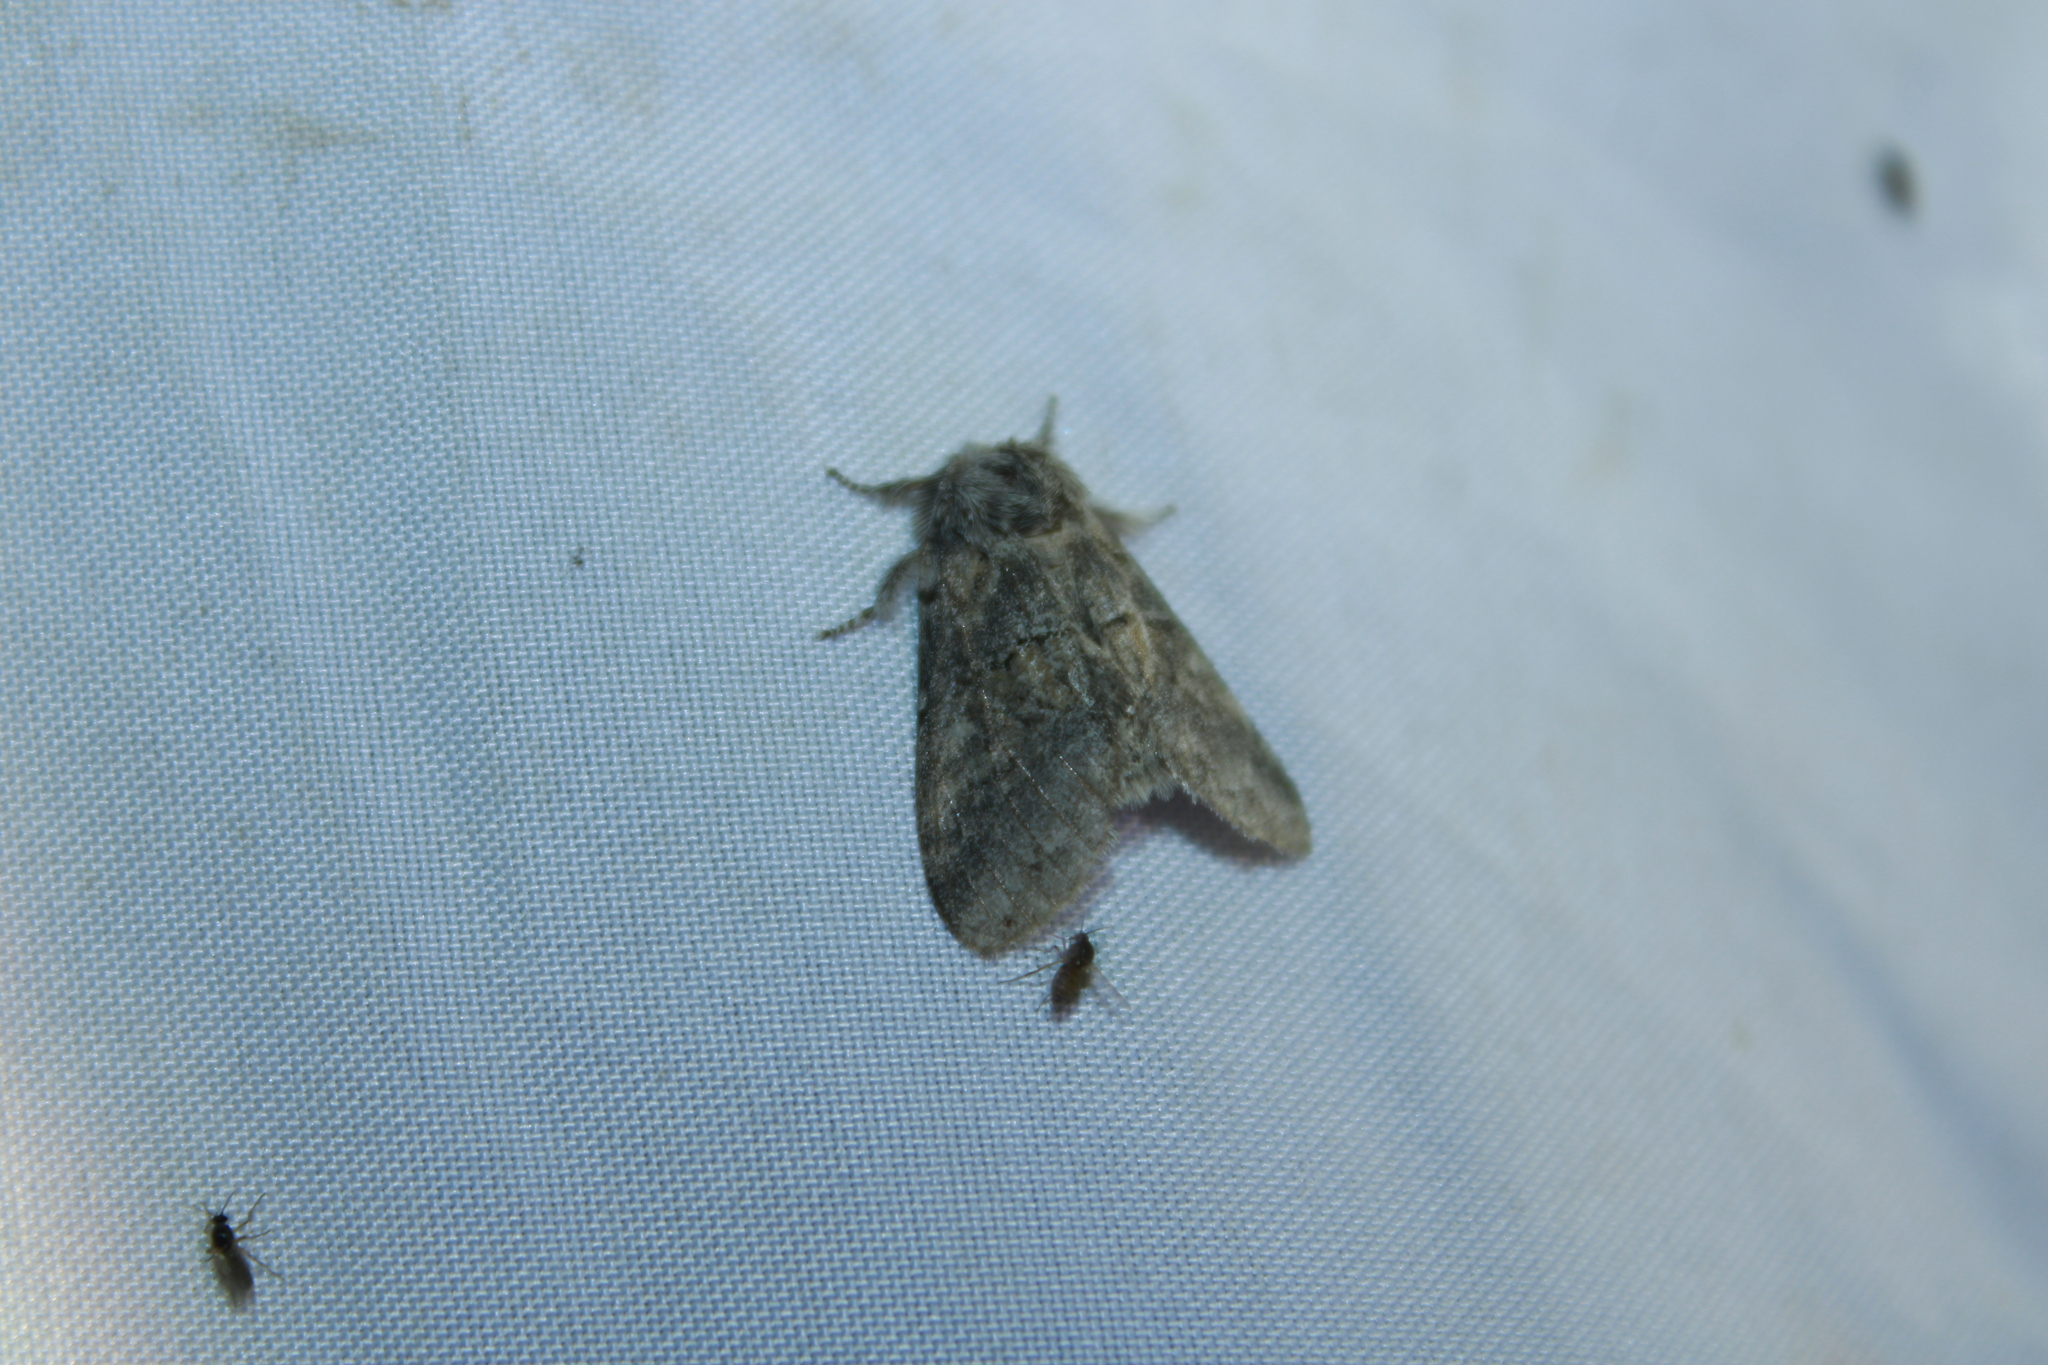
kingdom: Animalia
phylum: Arthropoda
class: Insecta
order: Lepidoptera
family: Notodontidae
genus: Gluphisia
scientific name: Gluphisia septentrionis
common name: Common gluphisia
